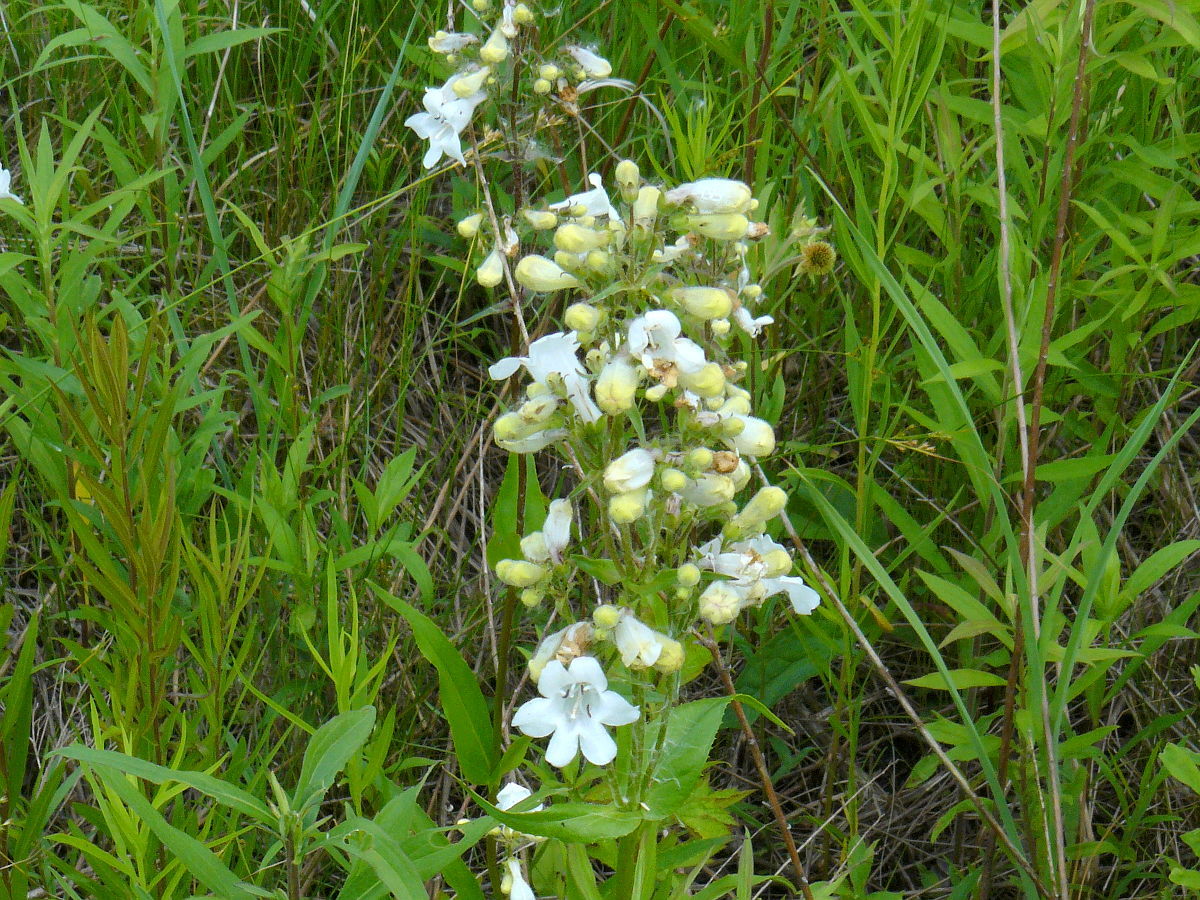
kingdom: Plantae
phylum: Tracheophyta
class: Magnoliopsida
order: Lamiales
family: Plantaginaceae
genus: Penstemon
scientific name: Penstemon digitalis
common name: Foxglove beardtongue
